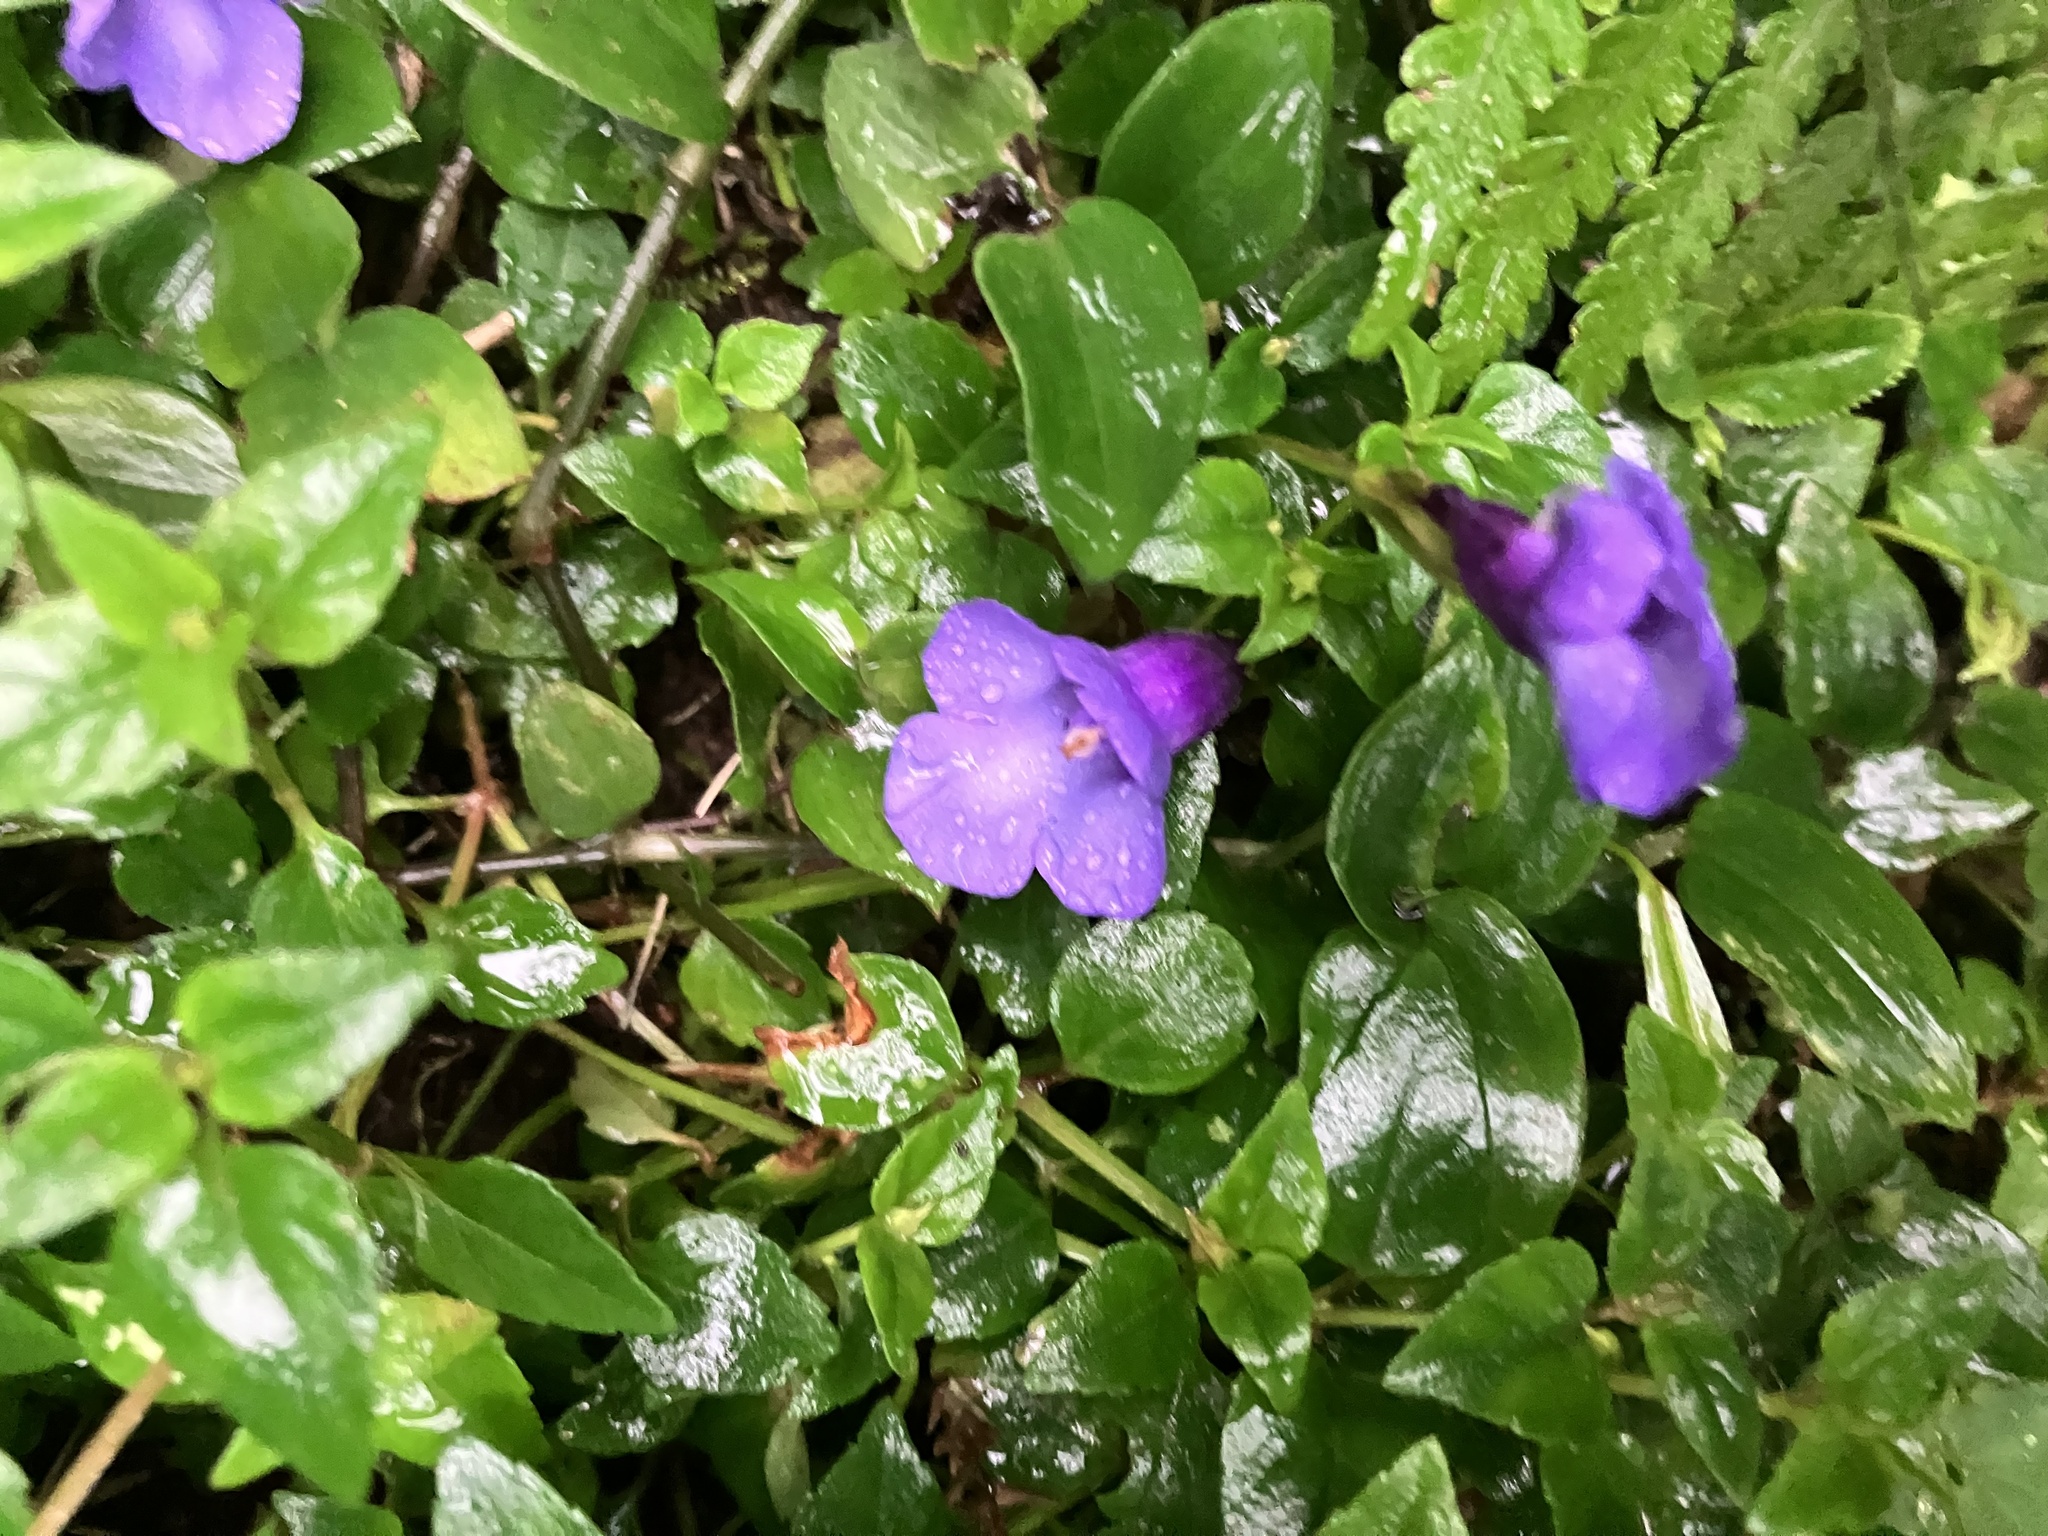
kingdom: Plantae
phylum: Tracheophyta
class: Magnoliopsida
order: Lamiales
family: Linderniaceae
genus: Torenia
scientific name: Torenia concolor
